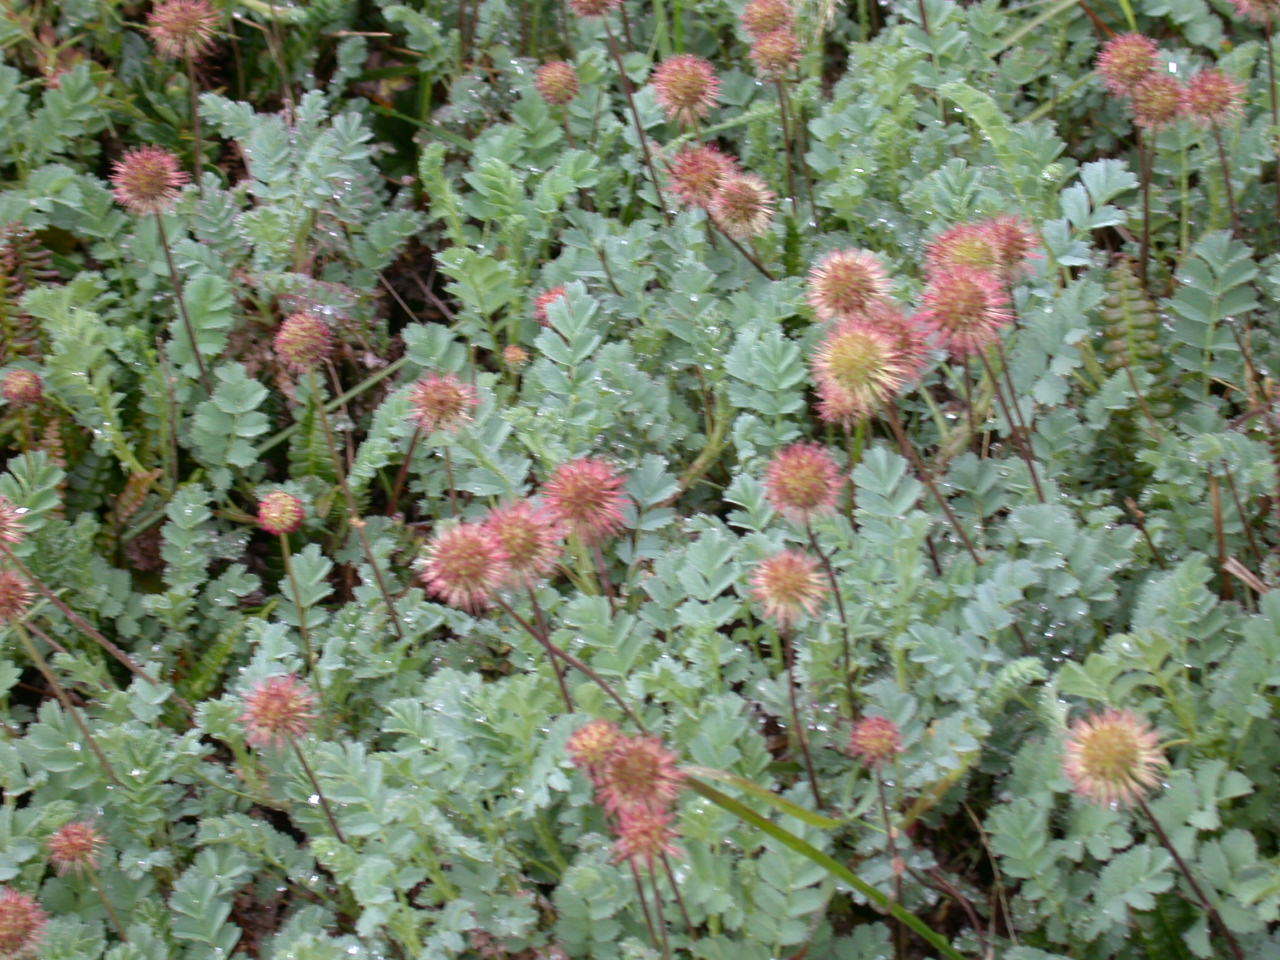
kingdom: Plantae
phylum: Tracheophyta
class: Magnoliopsida
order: Rosales
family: Rosaceae
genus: Acaena
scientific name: Acaena magellanica
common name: New zealand burr
